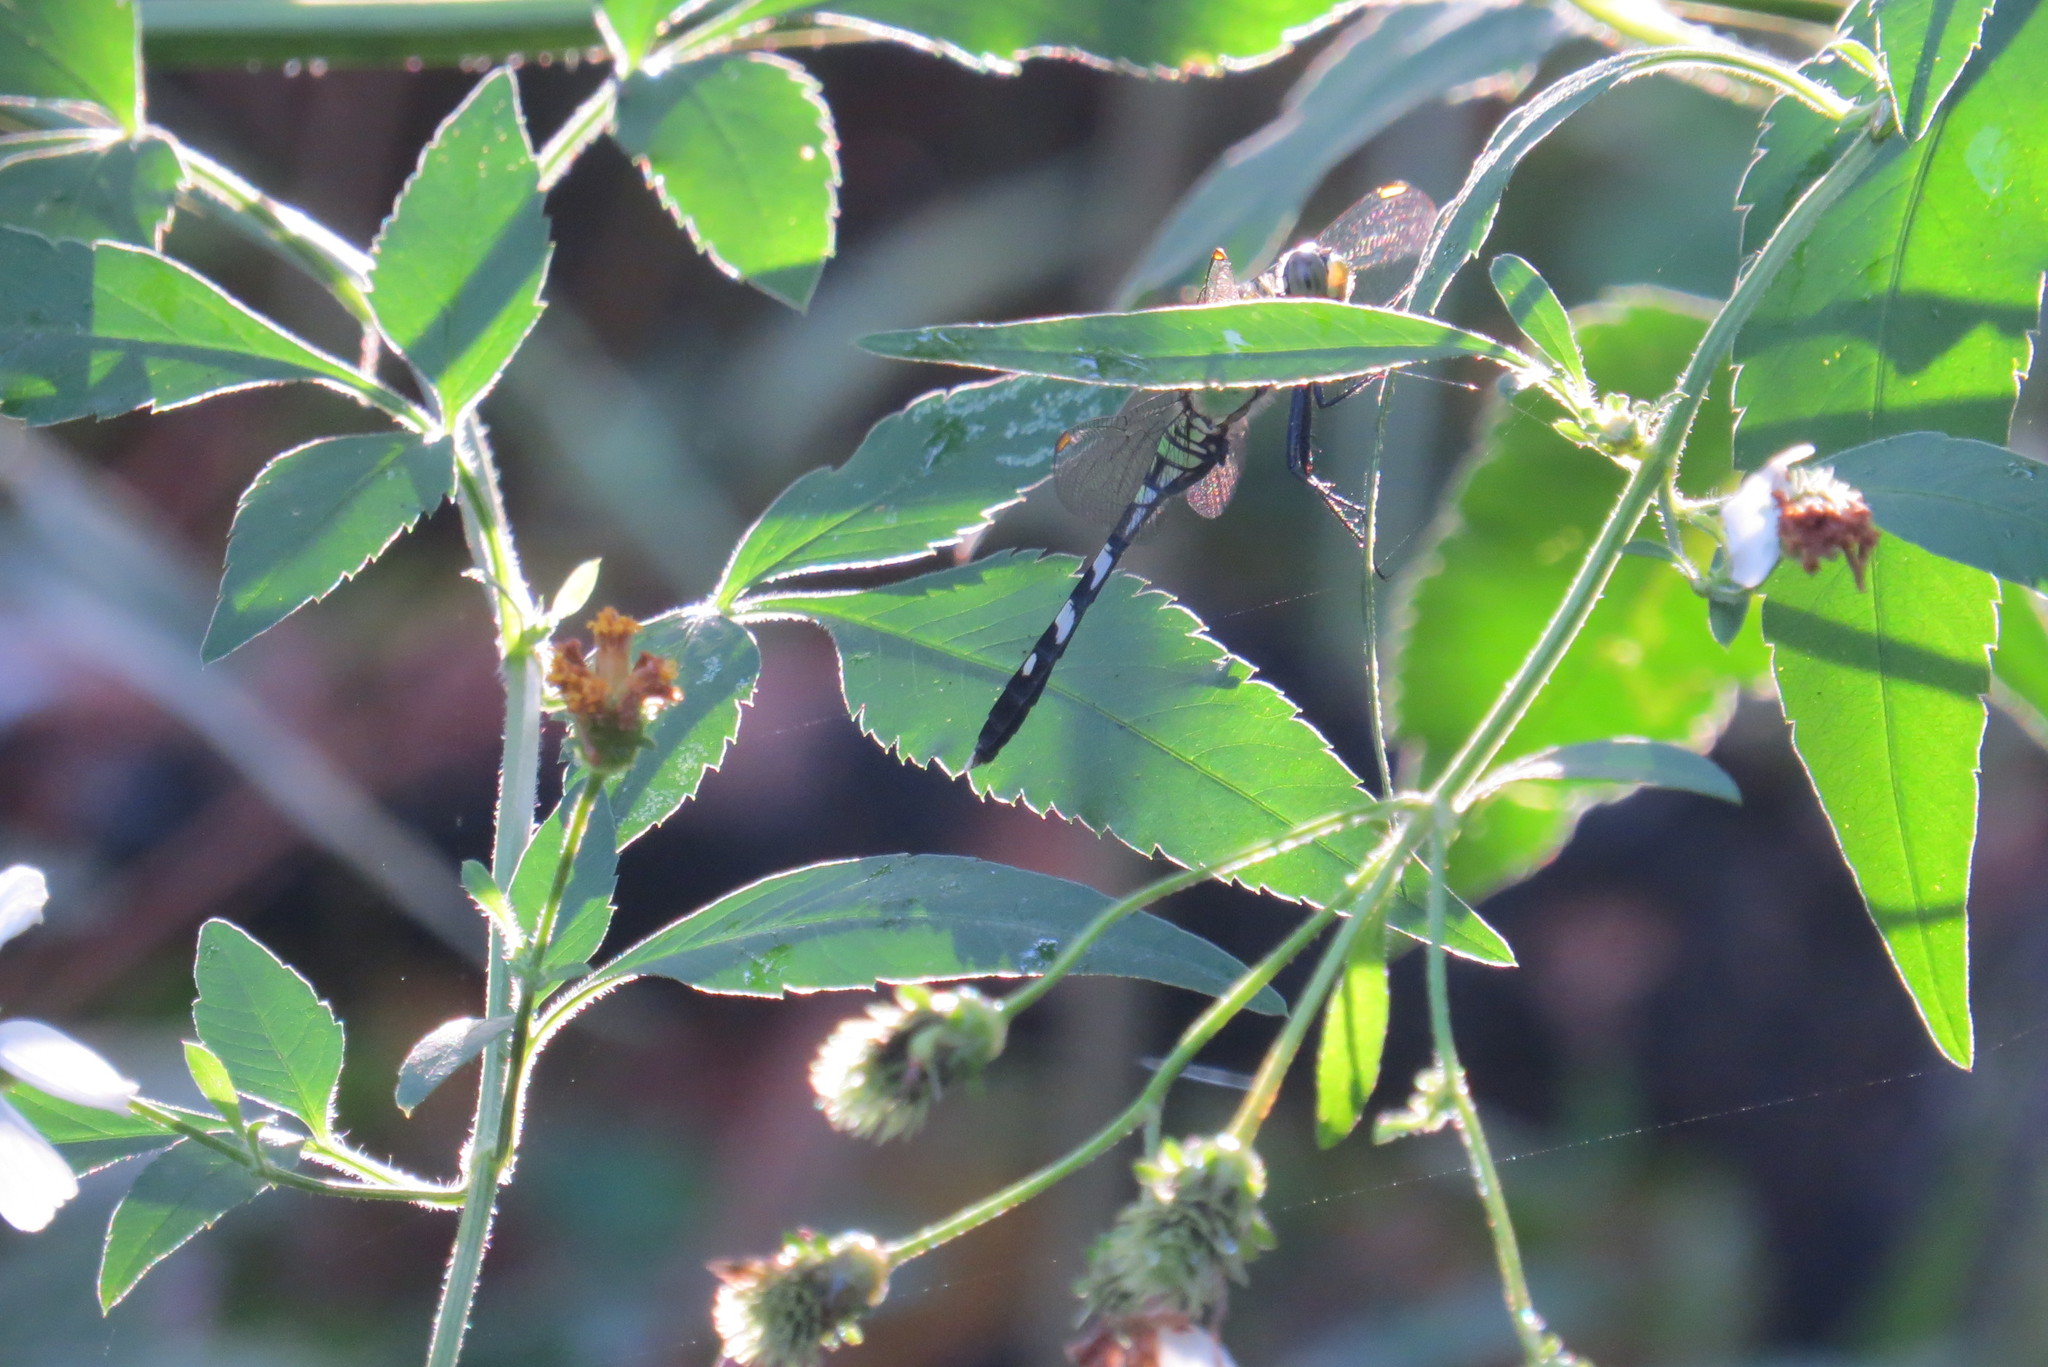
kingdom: Animalia
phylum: Arthropoda
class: Insecta
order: Odonata
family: Libellulidae
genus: Erythemis
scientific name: Erythemis simplicicollis
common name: Eastern pondhawk
